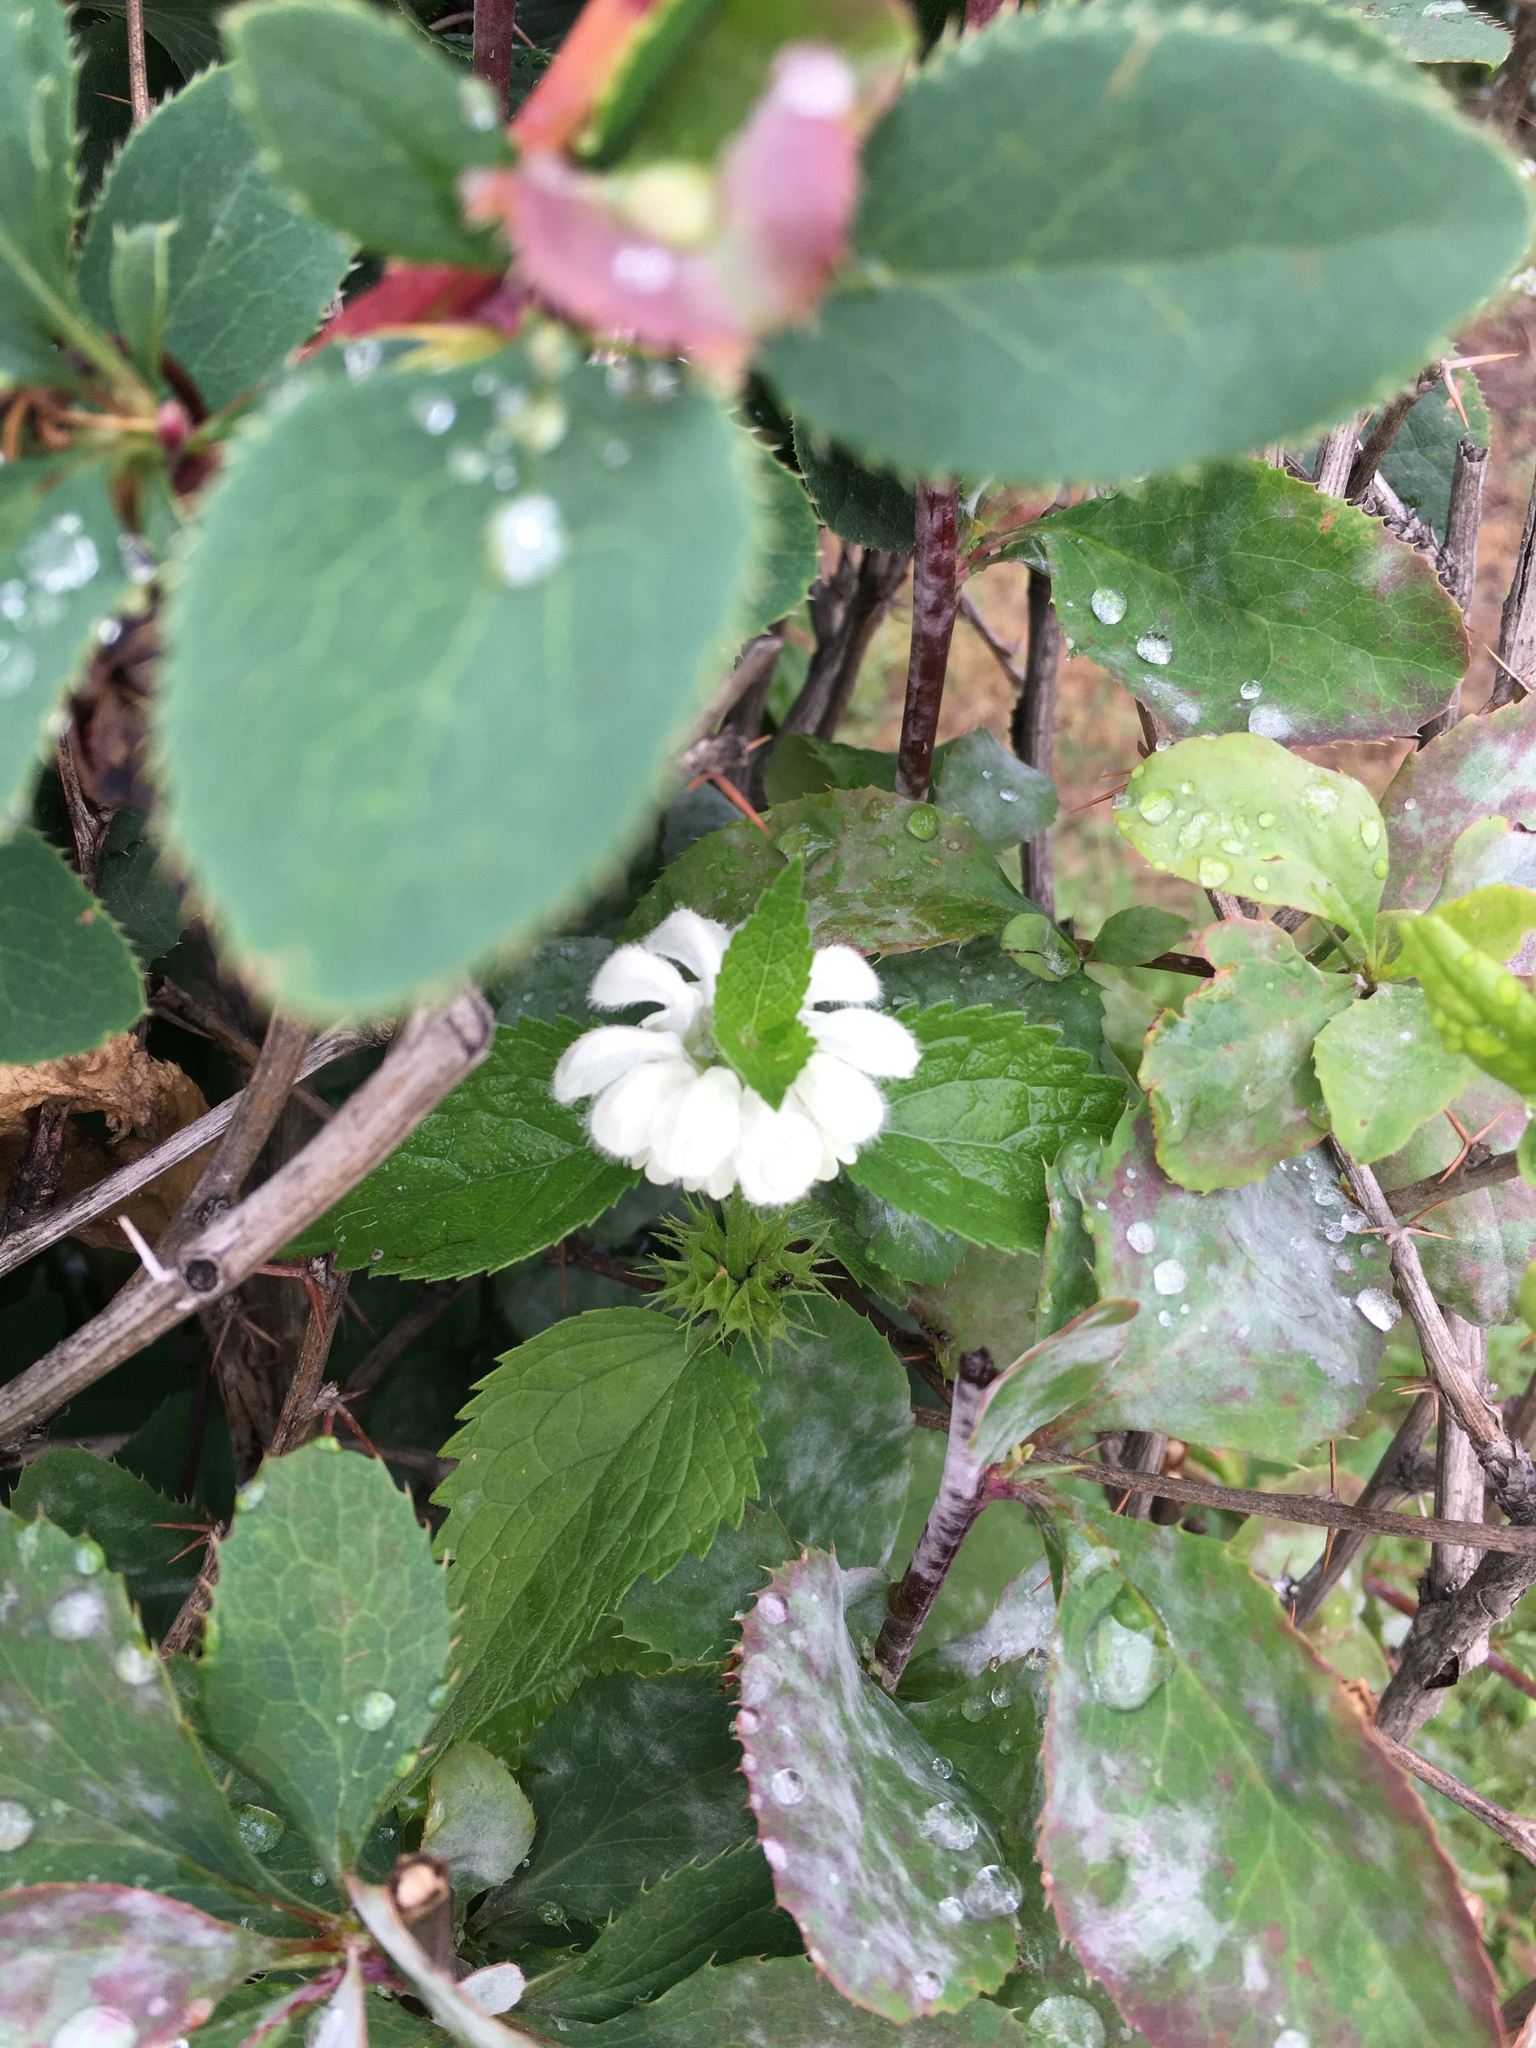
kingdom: Plantae
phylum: Tracheophyta
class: Magnoliopsida
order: Lamiales
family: Lamiaceae
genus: Lamium
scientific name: Lamium album
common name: White dead-nettle
